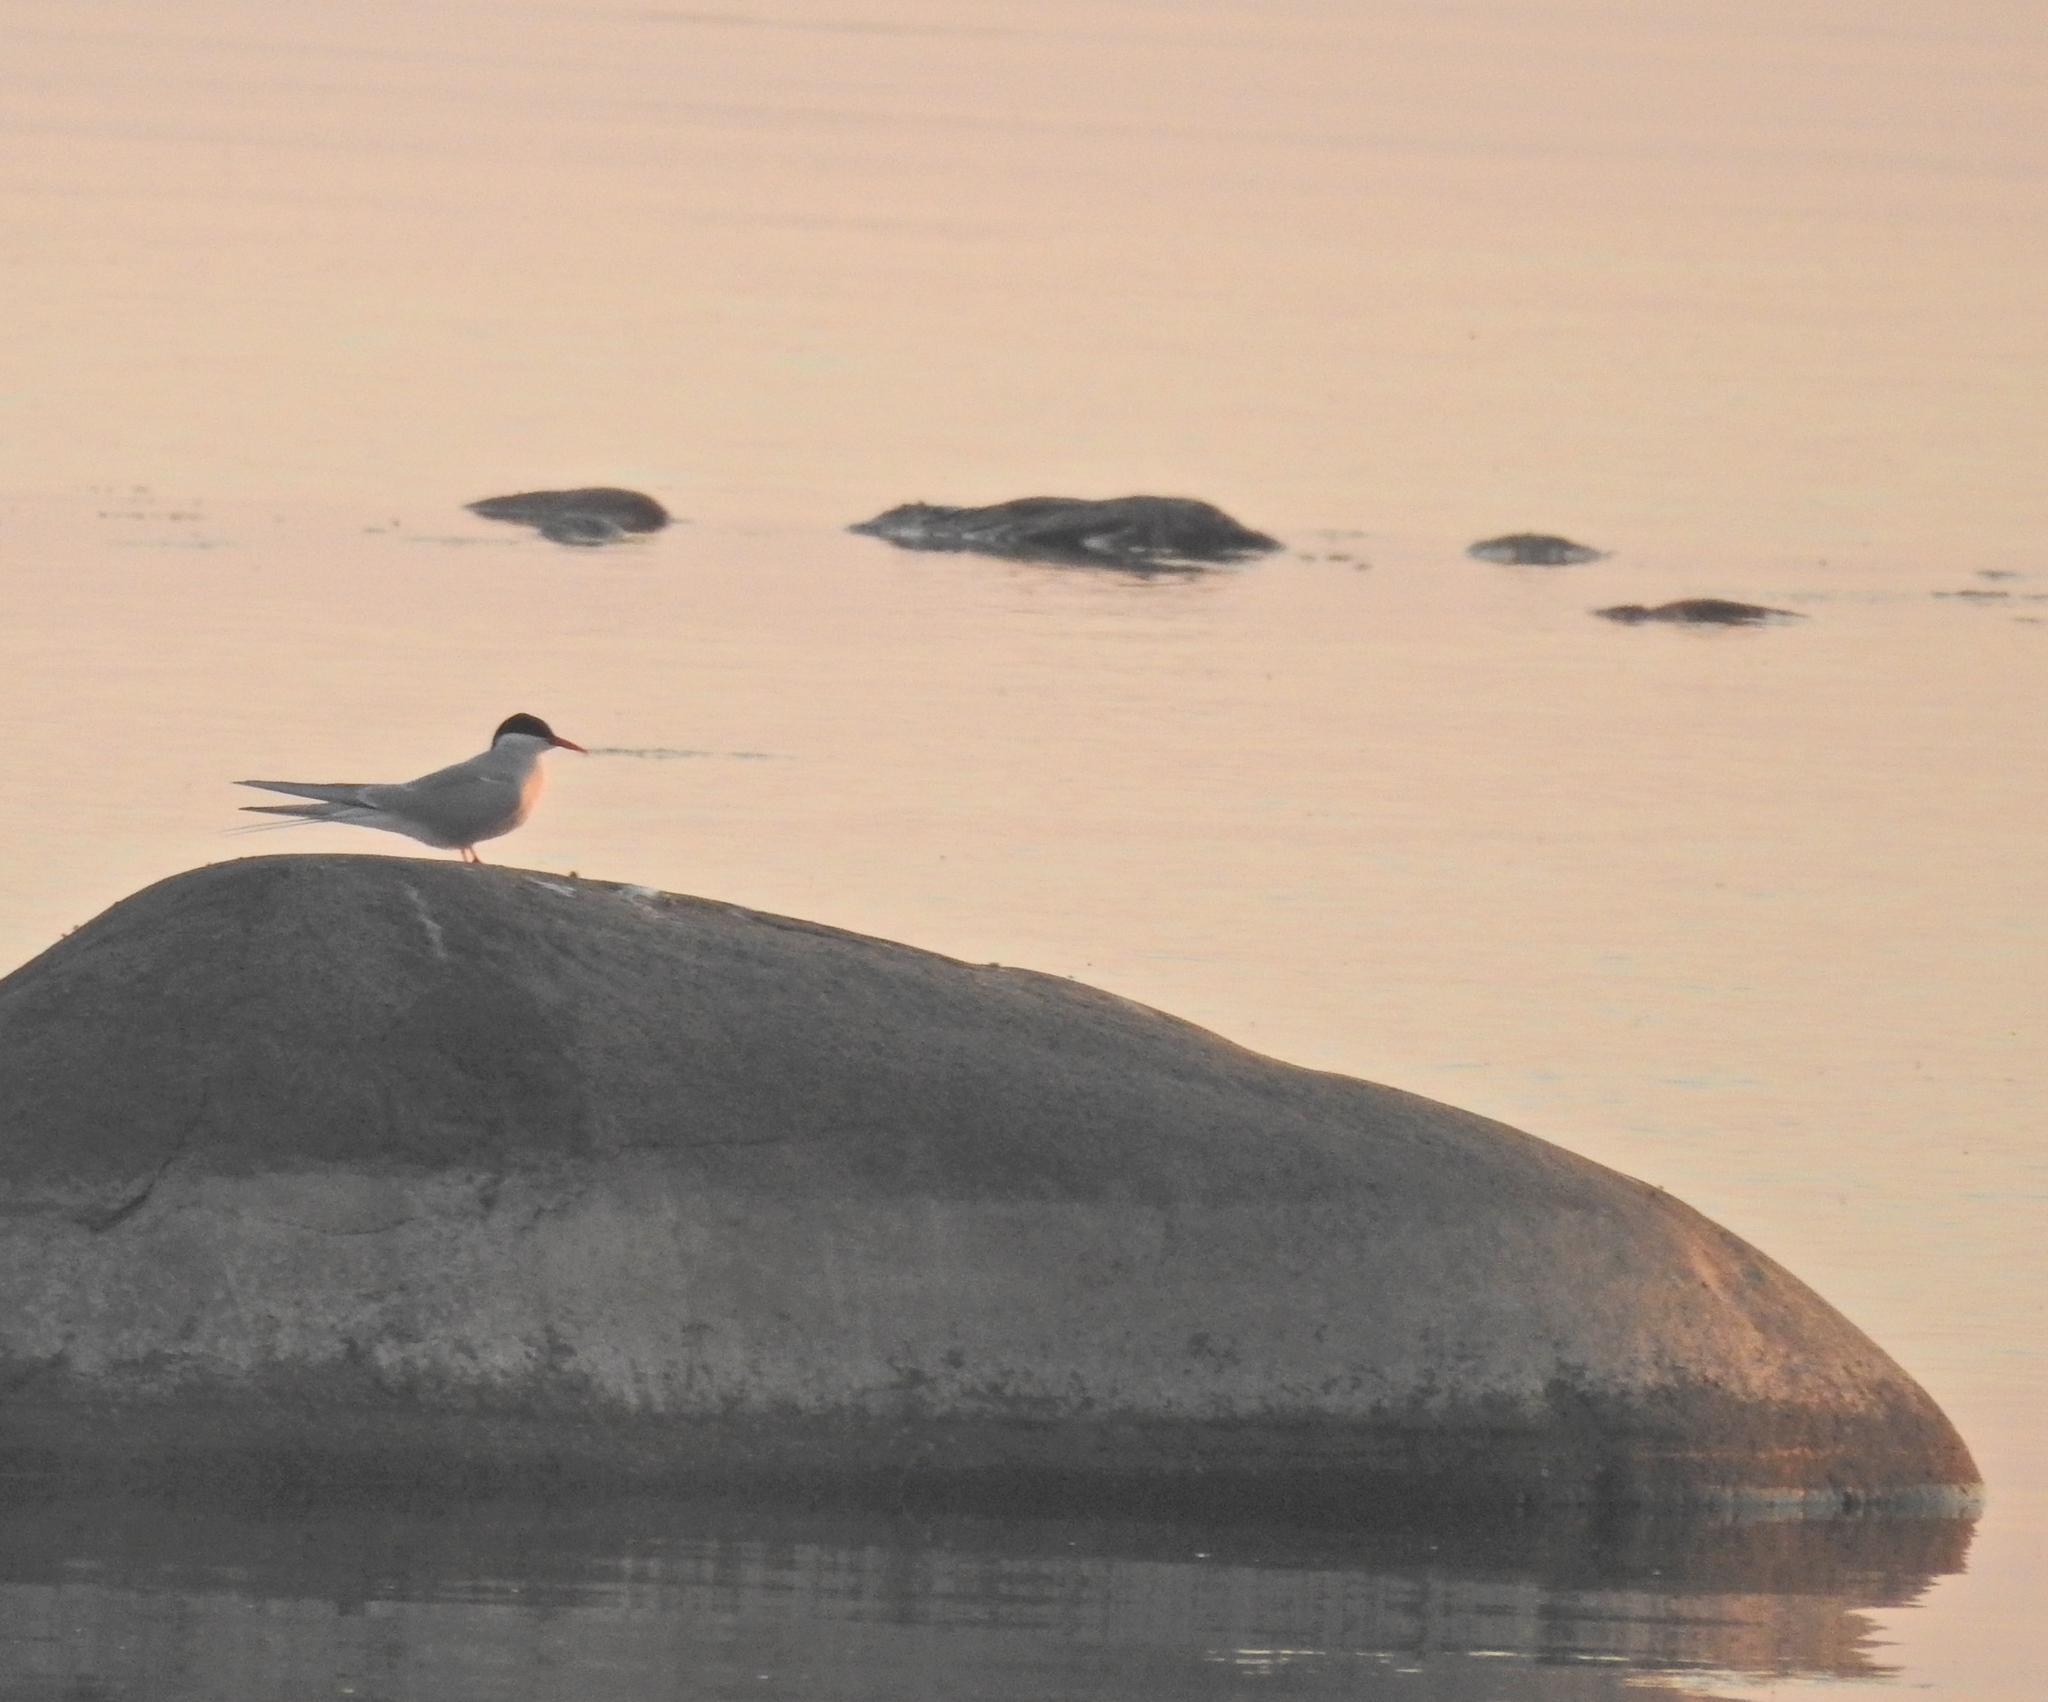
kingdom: Animalia
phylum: Chordata
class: Aves
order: Charadriiformes
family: Laridae
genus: Sterna
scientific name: Sterna paradisaea
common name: Arctic tern
